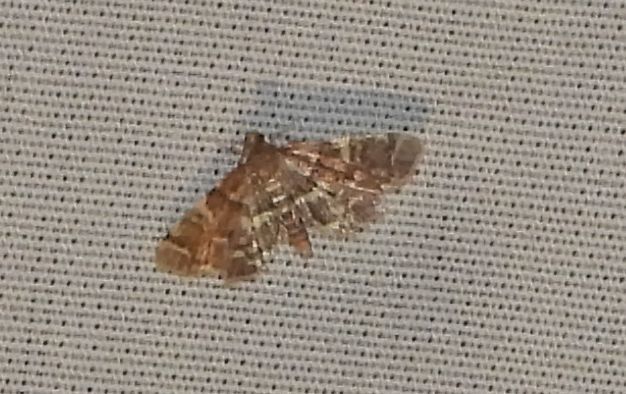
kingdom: Animalia
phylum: Arthropoda
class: Insecta
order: Lepidoptera
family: Crambidae
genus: Anageshna
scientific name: Anageshna primordialis
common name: Yellow-spotted webworm moth
